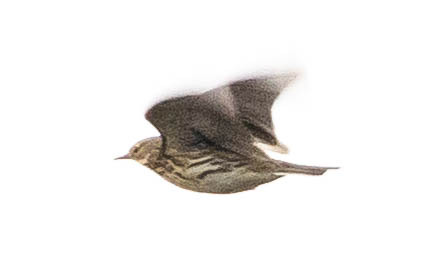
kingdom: Animalia
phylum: Chordata
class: Aves
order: Passeriformes
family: Motacillidae
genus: Anthus
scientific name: Anthus pratensis
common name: Meadow pipit
